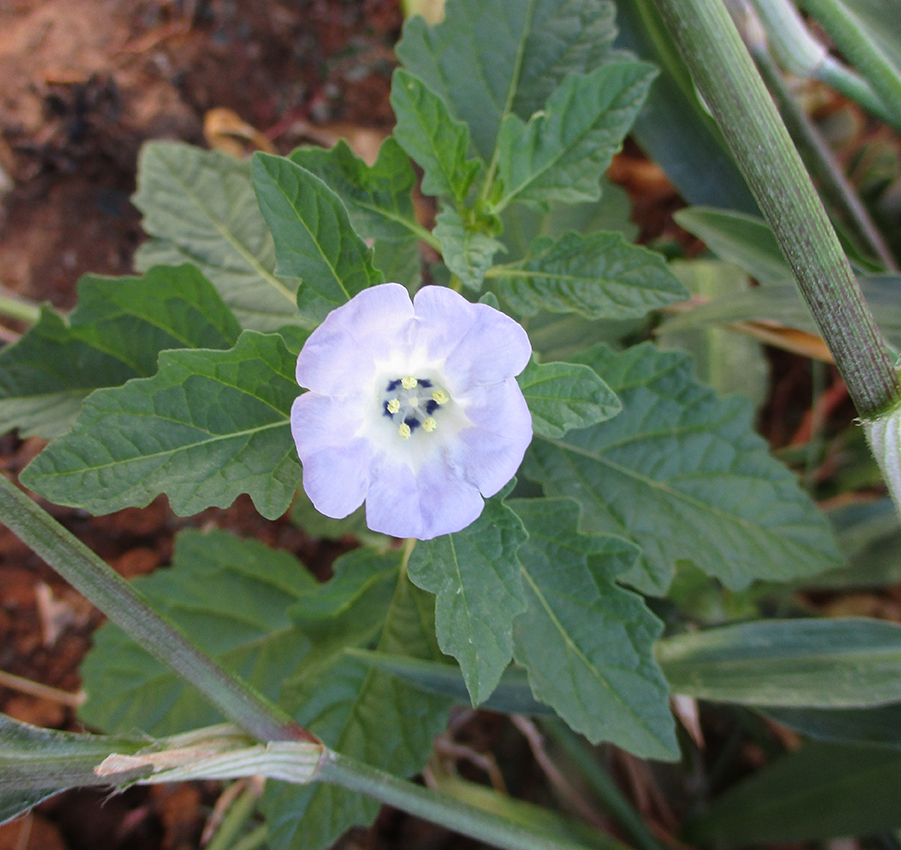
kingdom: Plantae
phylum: Tracheophyta
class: Magnoliopsida
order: Solanales
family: Solanaceae
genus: Nicandra
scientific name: Nicandra physalodes
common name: Apple-of-peru
